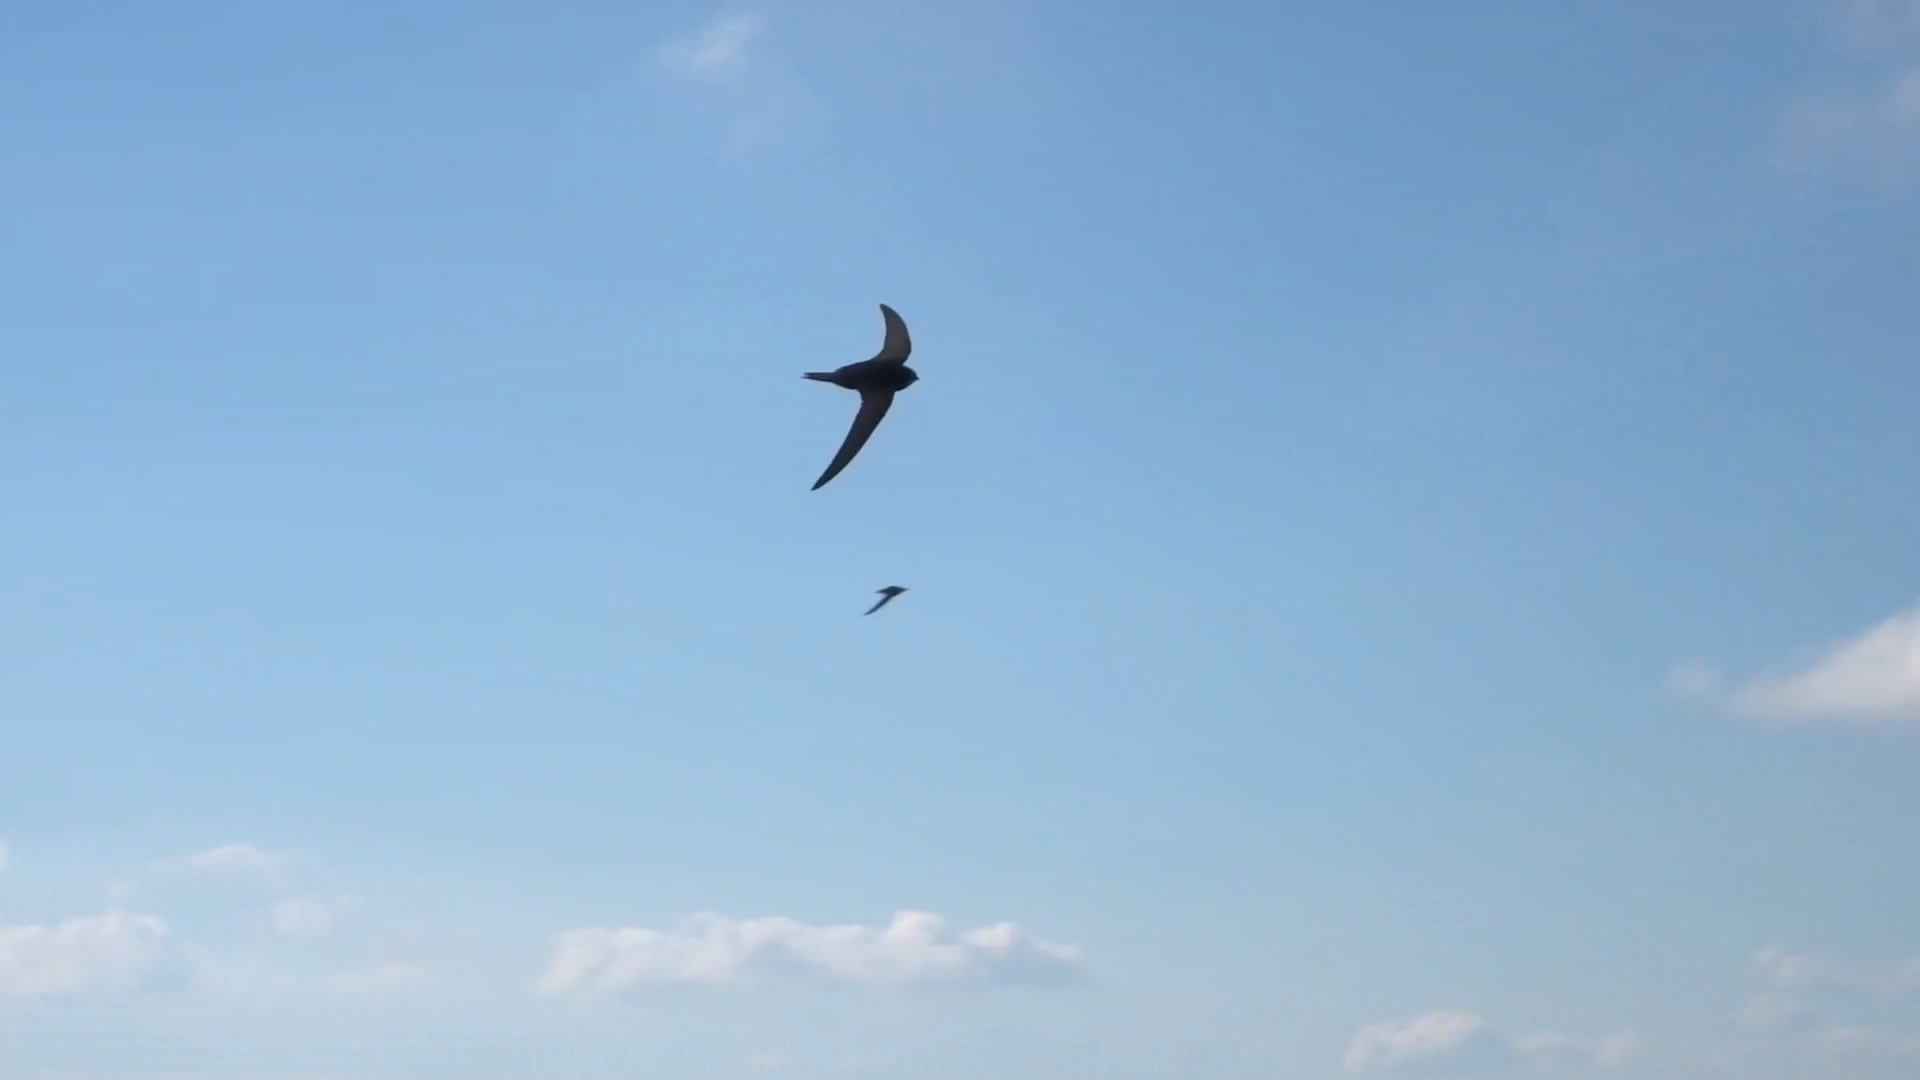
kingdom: Animalia
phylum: Chordata
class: Aves
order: Apodiformes
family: Apodidae
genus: Apus
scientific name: Apus apus
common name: Common swift
